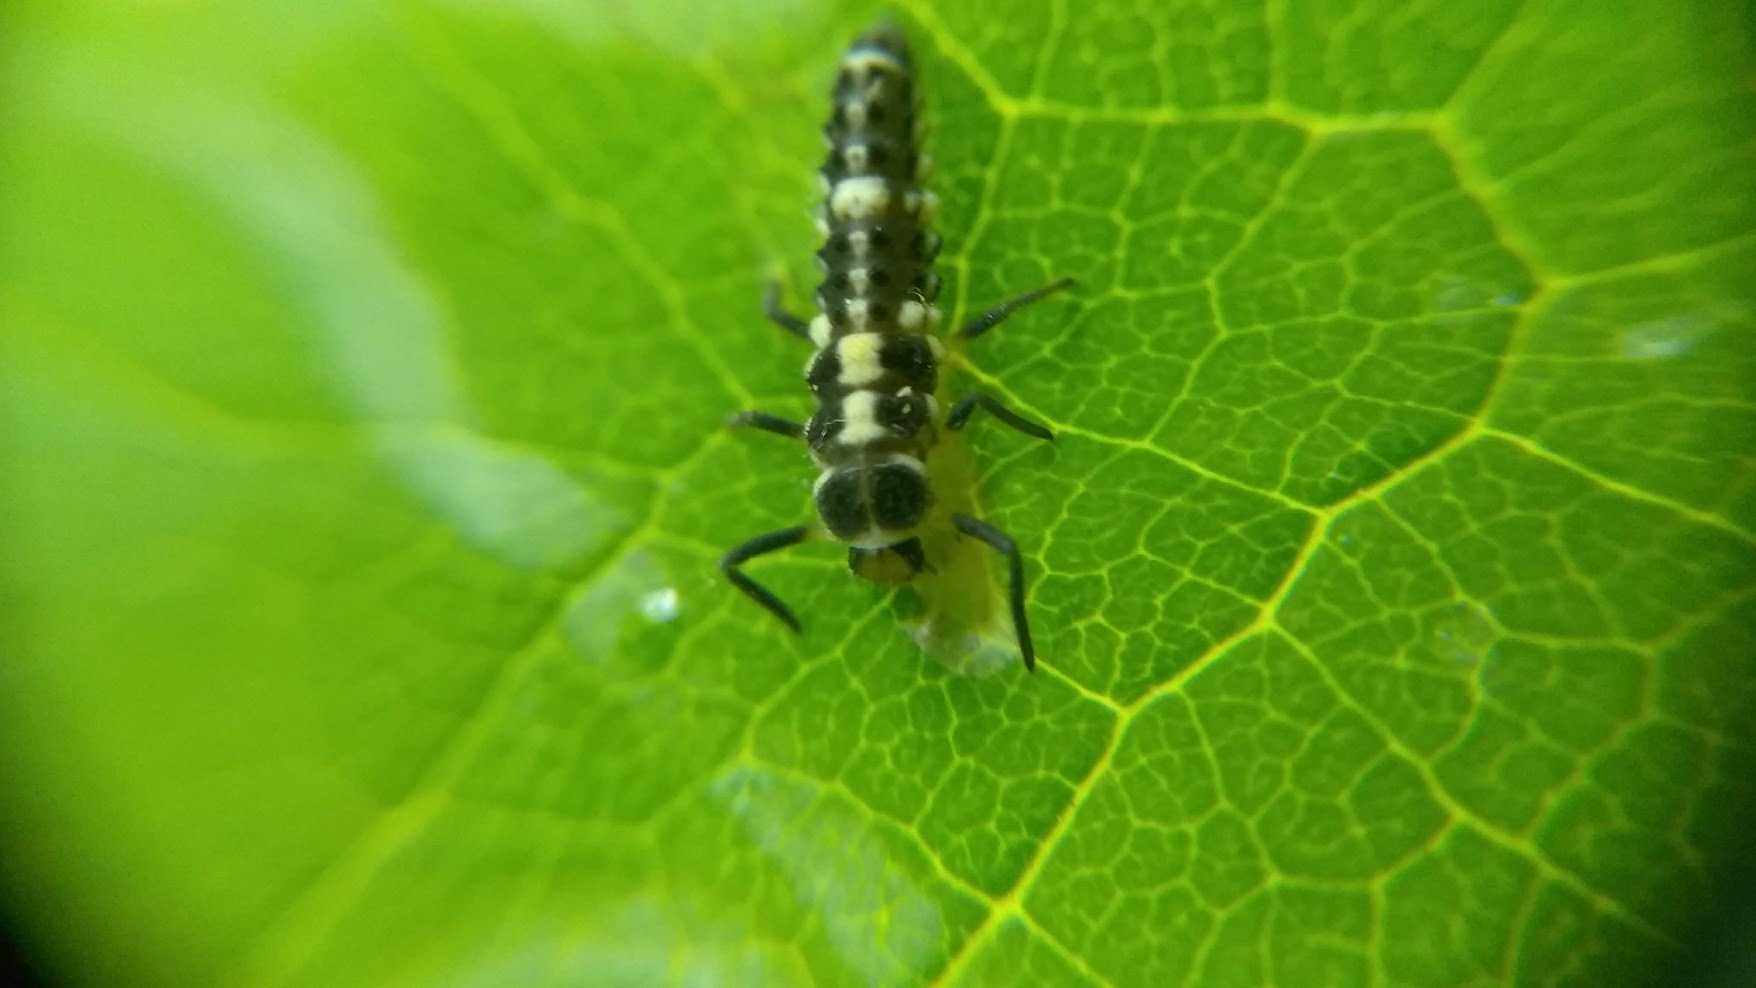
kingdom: Animalia
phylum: Arthropoda
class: Insecta
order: Coleoptera
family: Coccinellidae
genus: Propylaea
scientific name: Propylaea quatuordecimpunctata
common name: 14-spotted ladybird beetle
